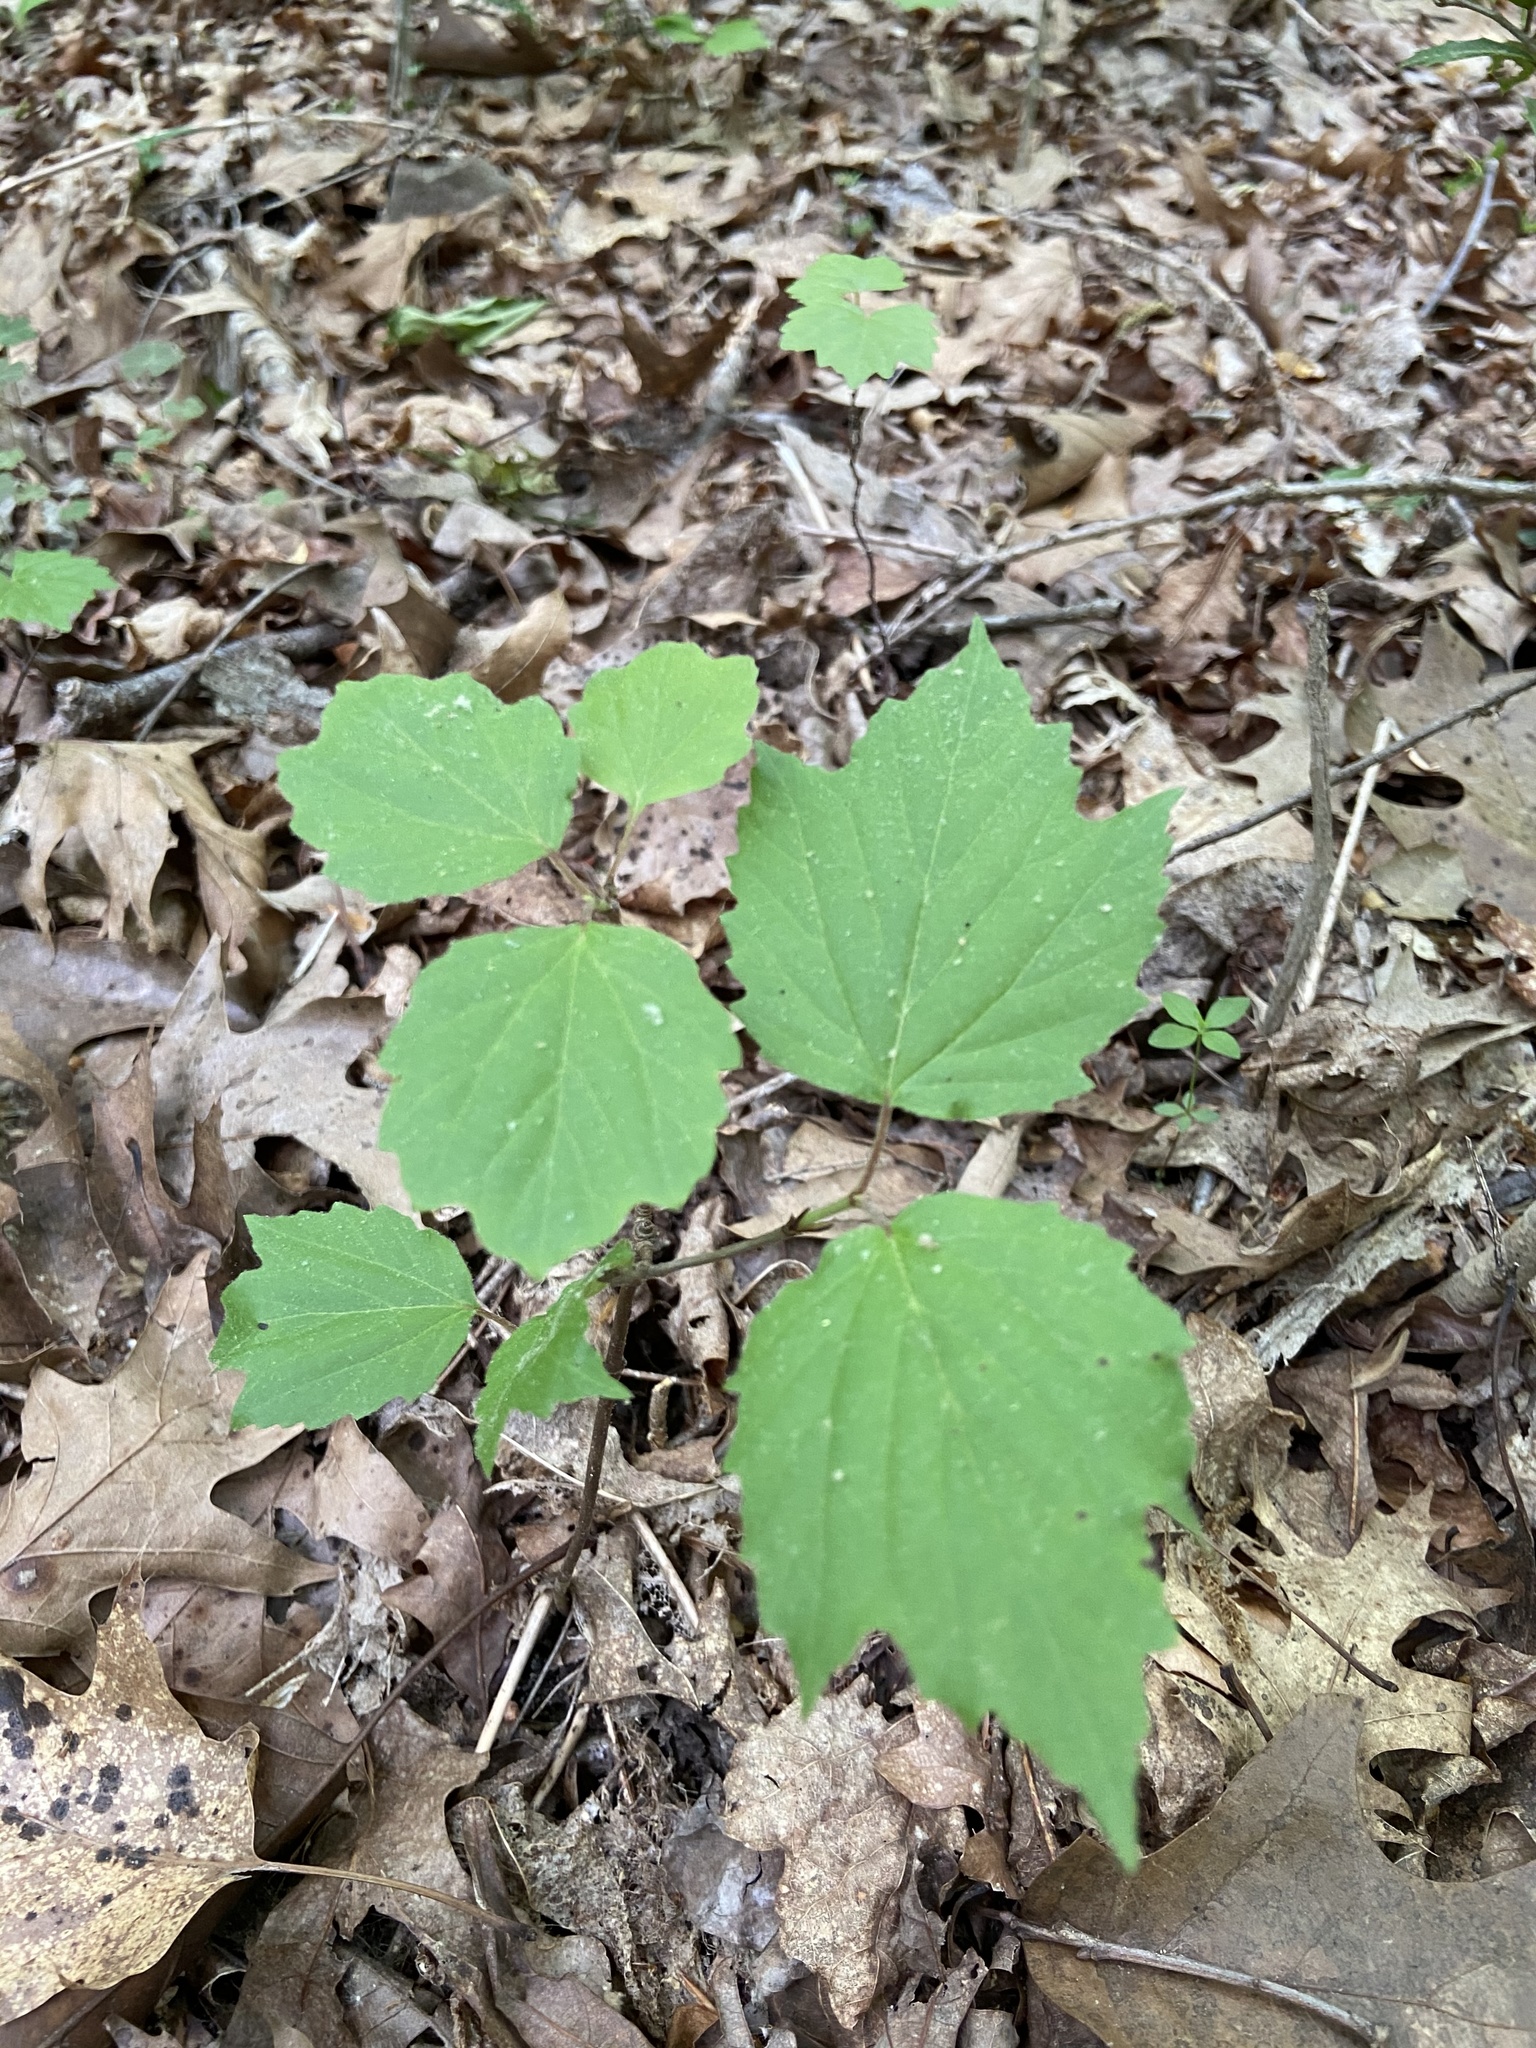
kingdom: Plantae
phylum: Tracheophyta
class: Magnoliopsida
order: Dipsacales
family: Viburnaceae
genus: Viburnum
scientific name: Viburnum acerifolium
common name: Dockmackie
